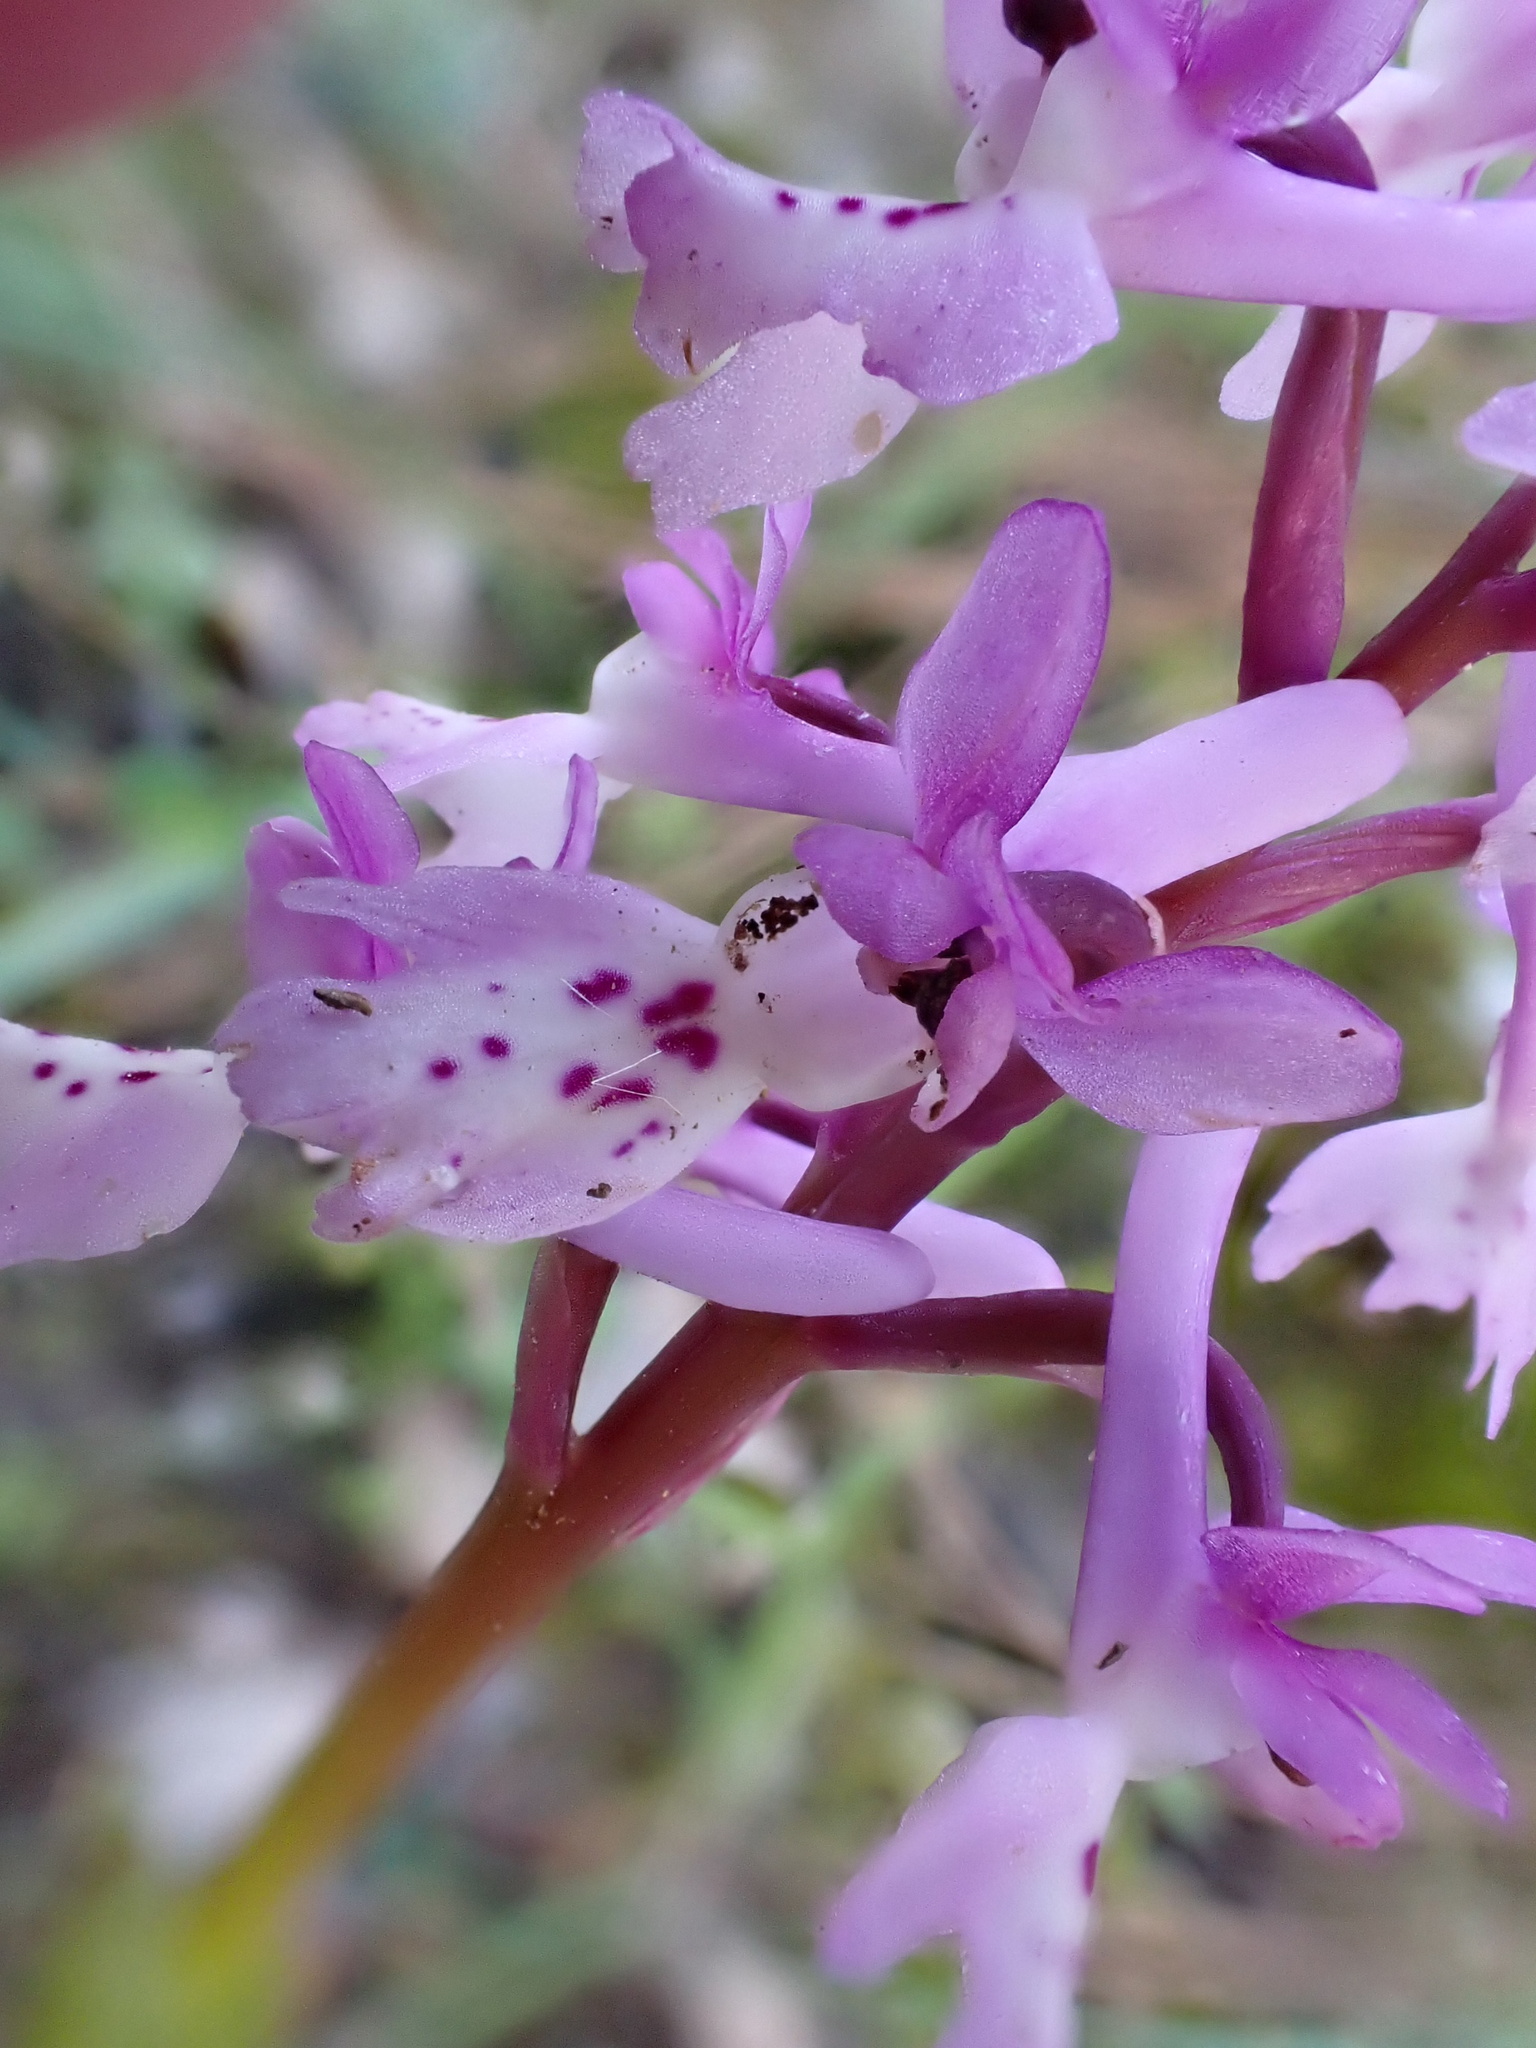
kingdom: Plantae
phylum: Tracheophyta
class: Liliopsida
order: Asparagales
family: Orchidaceae
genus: Orchis
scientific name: Orchis olbiensis
